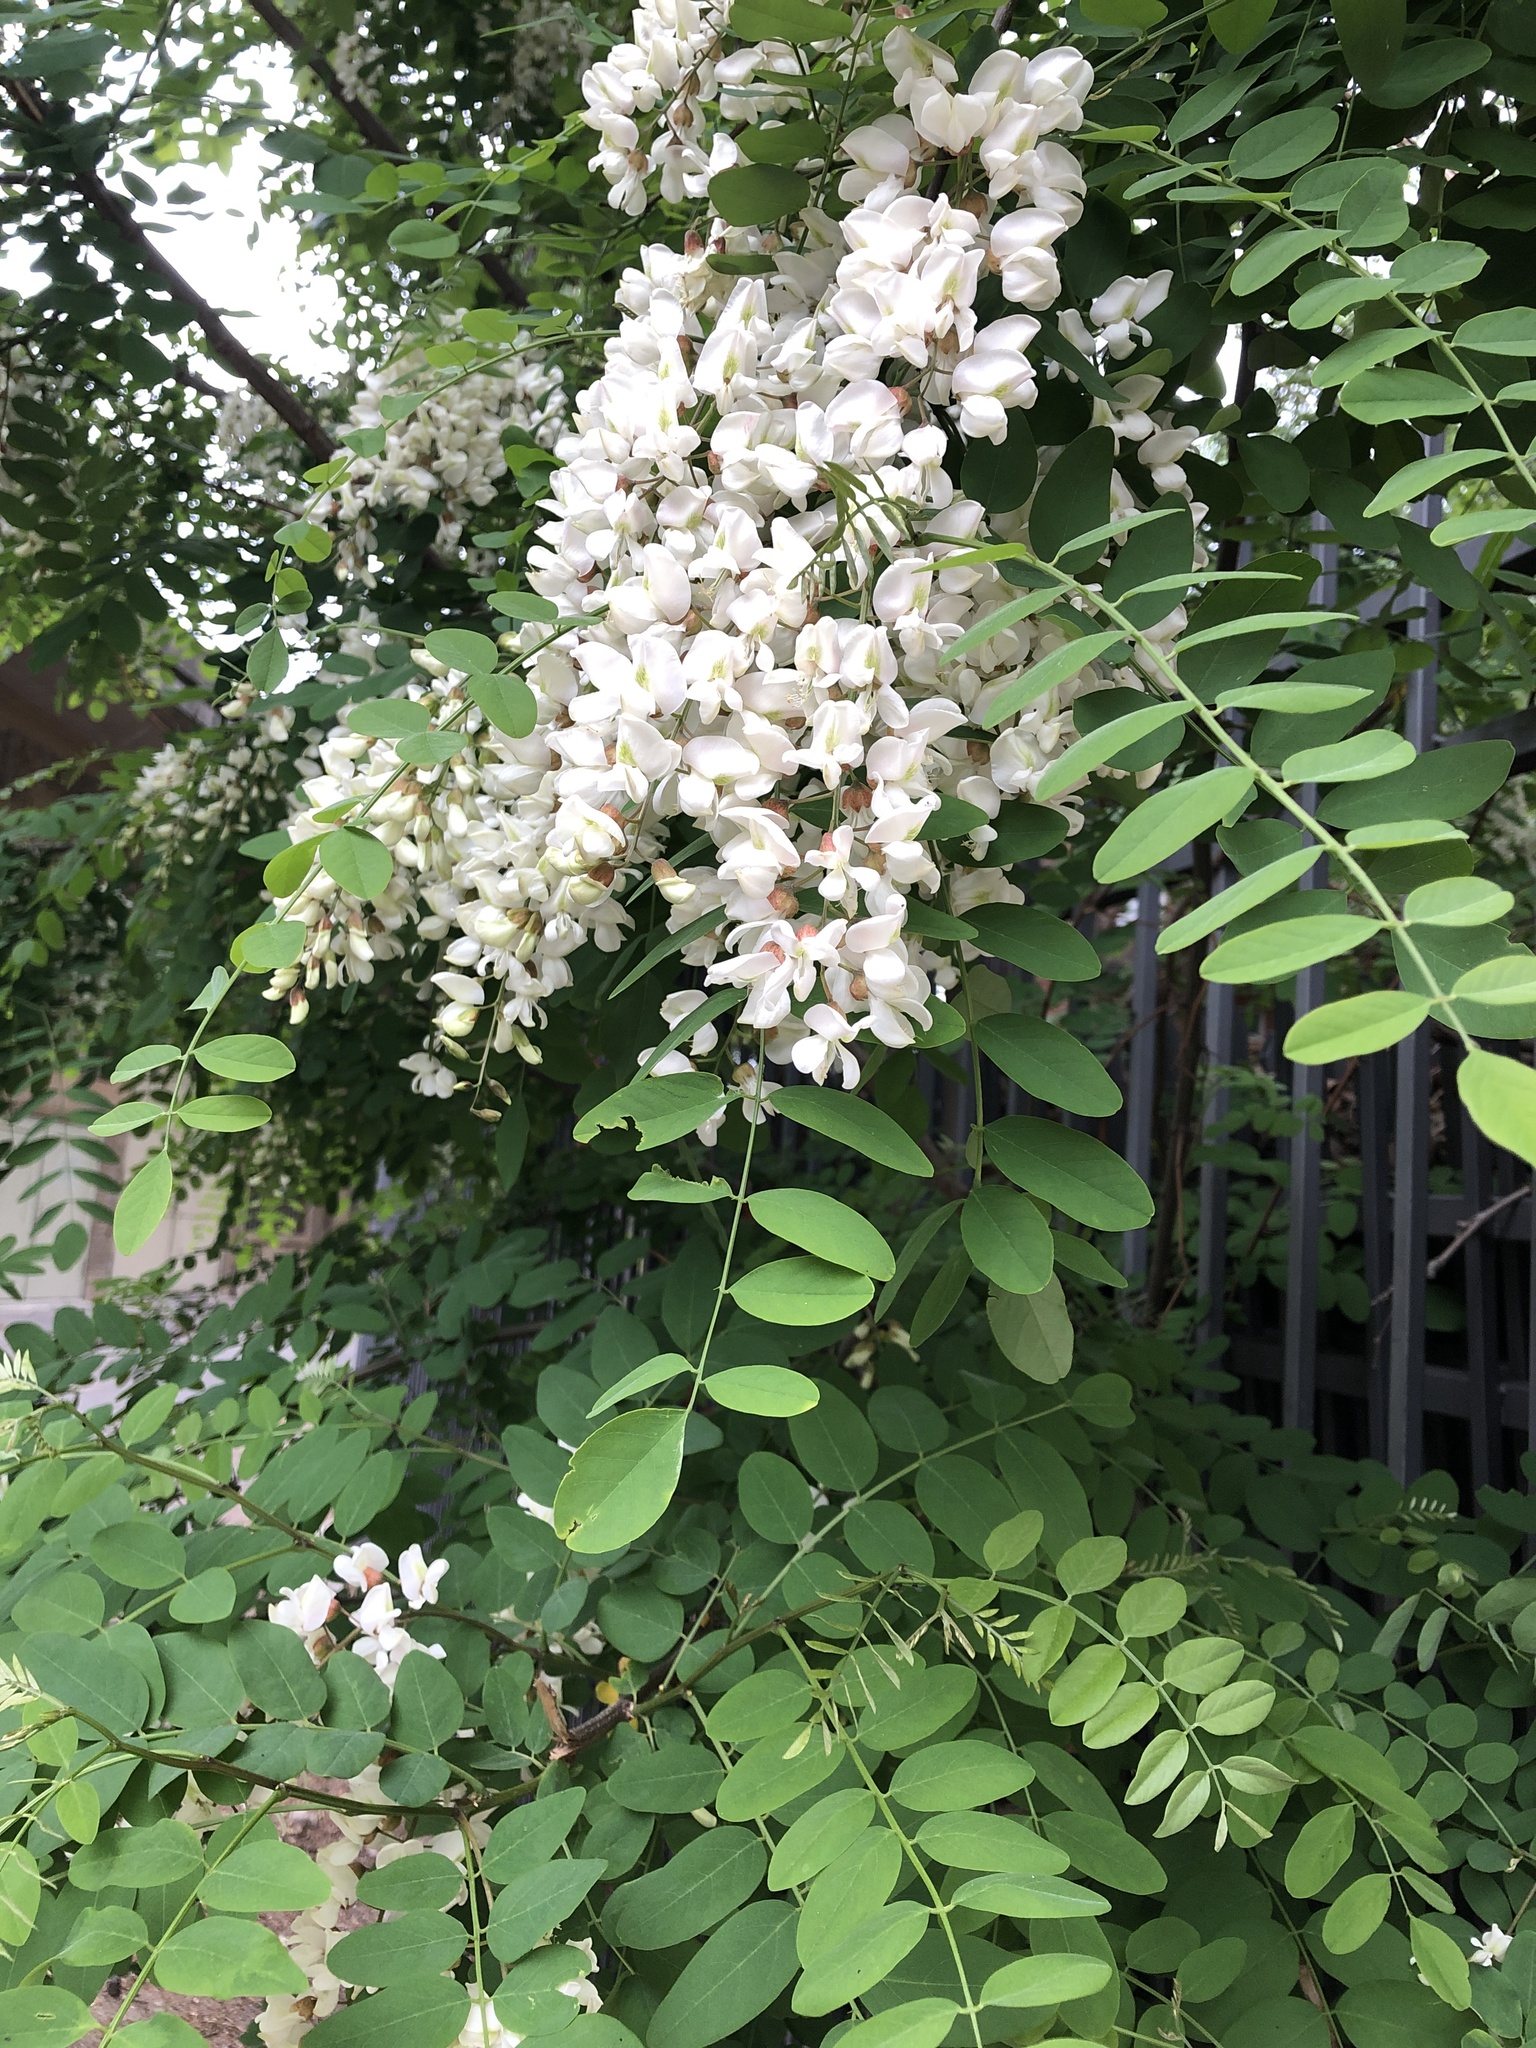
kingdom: Plantae
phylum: Tracheophyta
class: Magnoliopsida
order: Fabales
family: Fabaceae
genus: Robinia
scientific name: Robinia pseudoacacia
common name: Black locust
